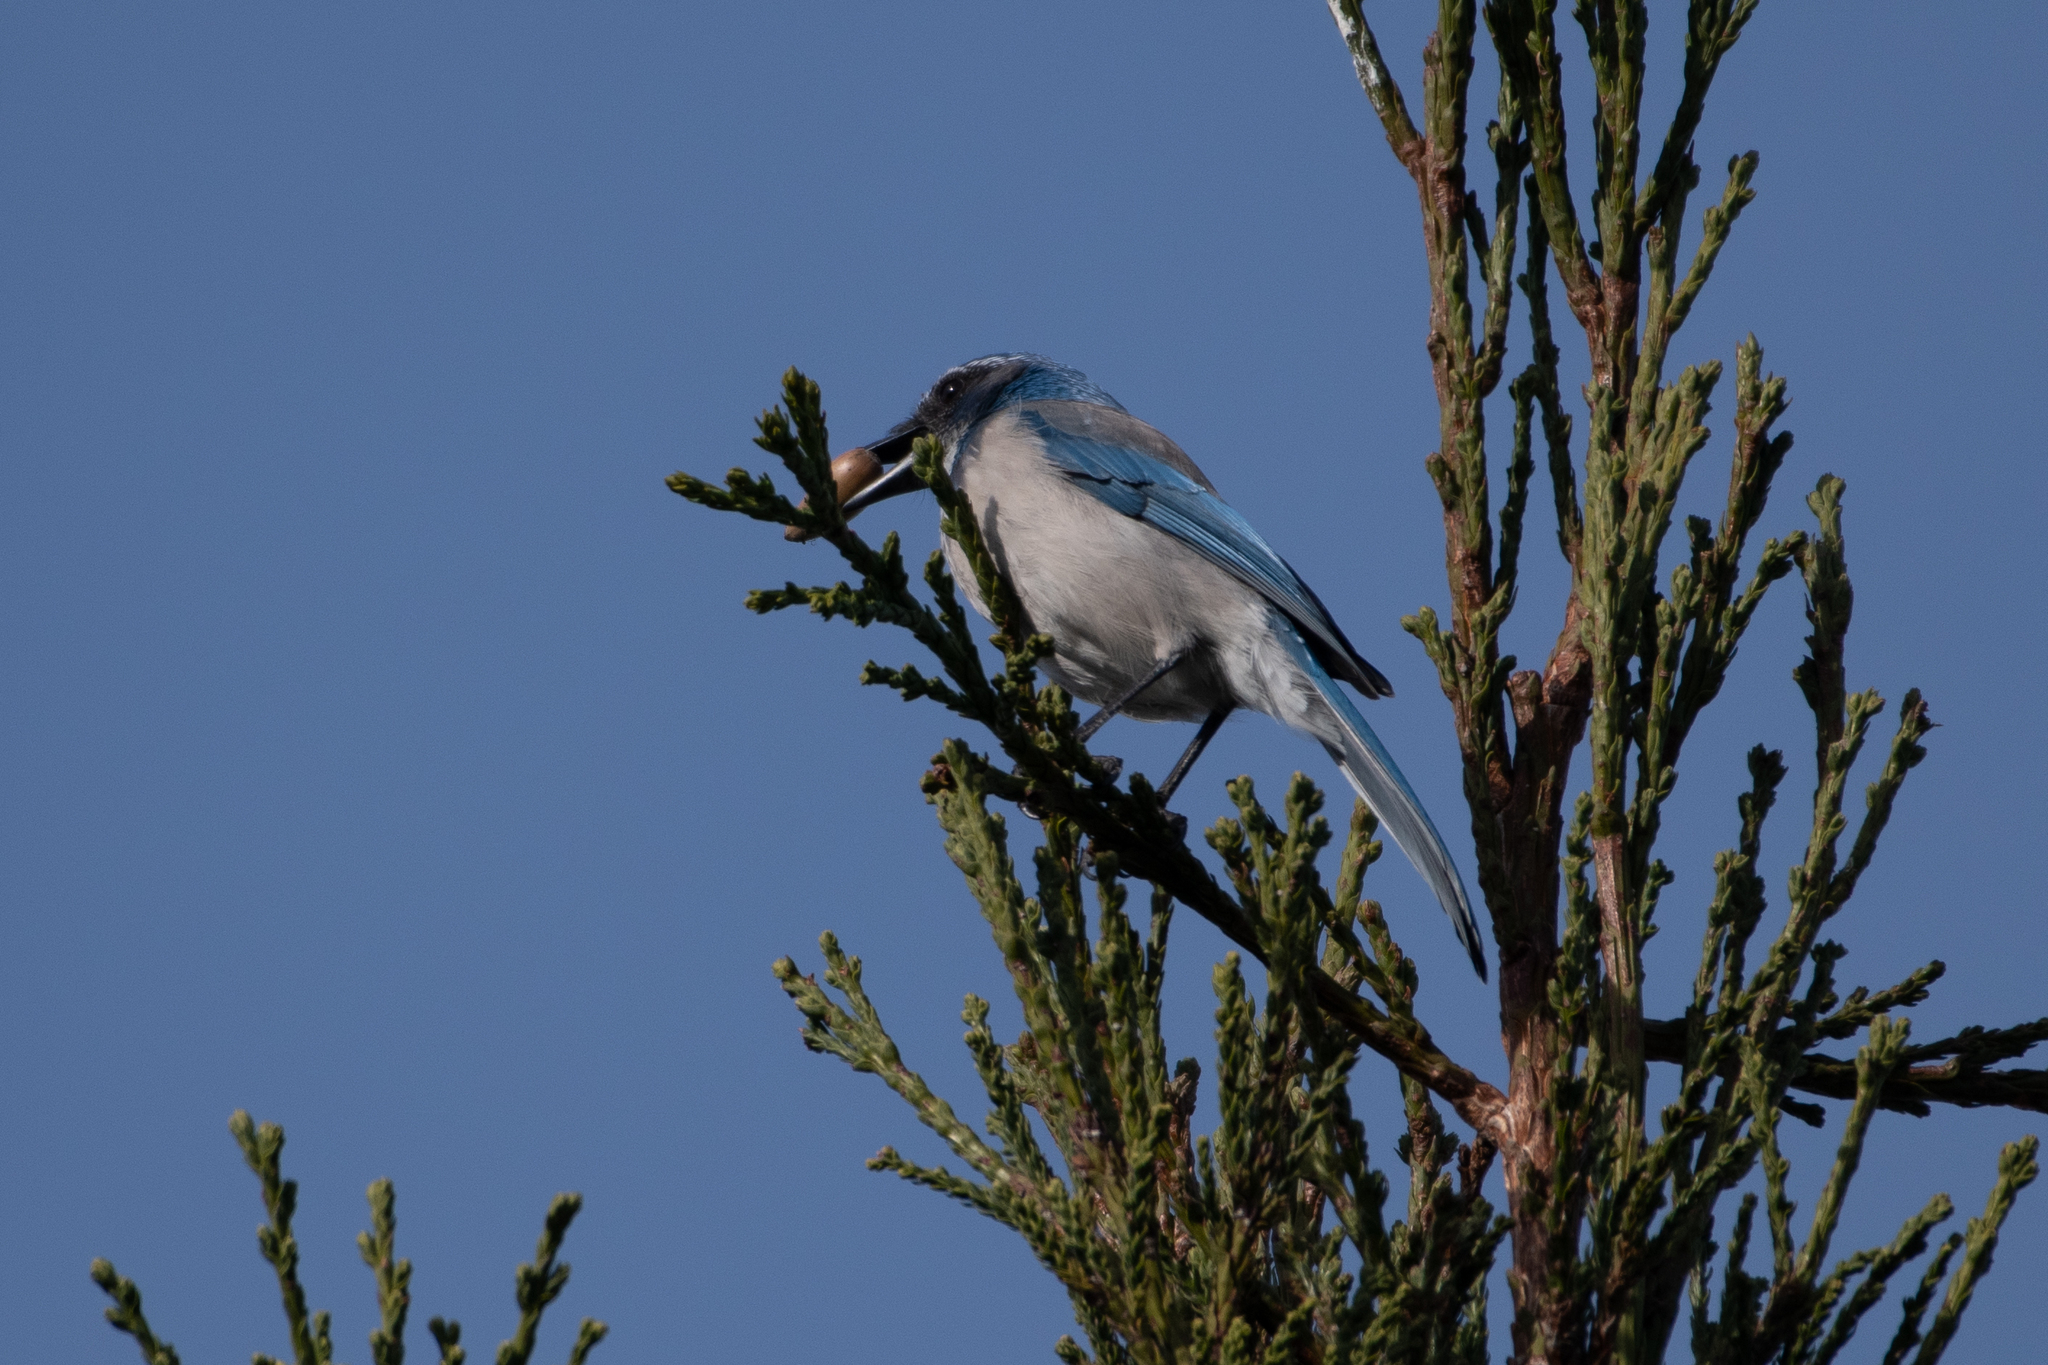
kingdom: Animalia
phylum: Chordata
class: Aves
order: Passeriformes
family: Corvidae
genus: Aphelocoma
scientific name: Aphelocoma californica
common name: California scrub-jay
